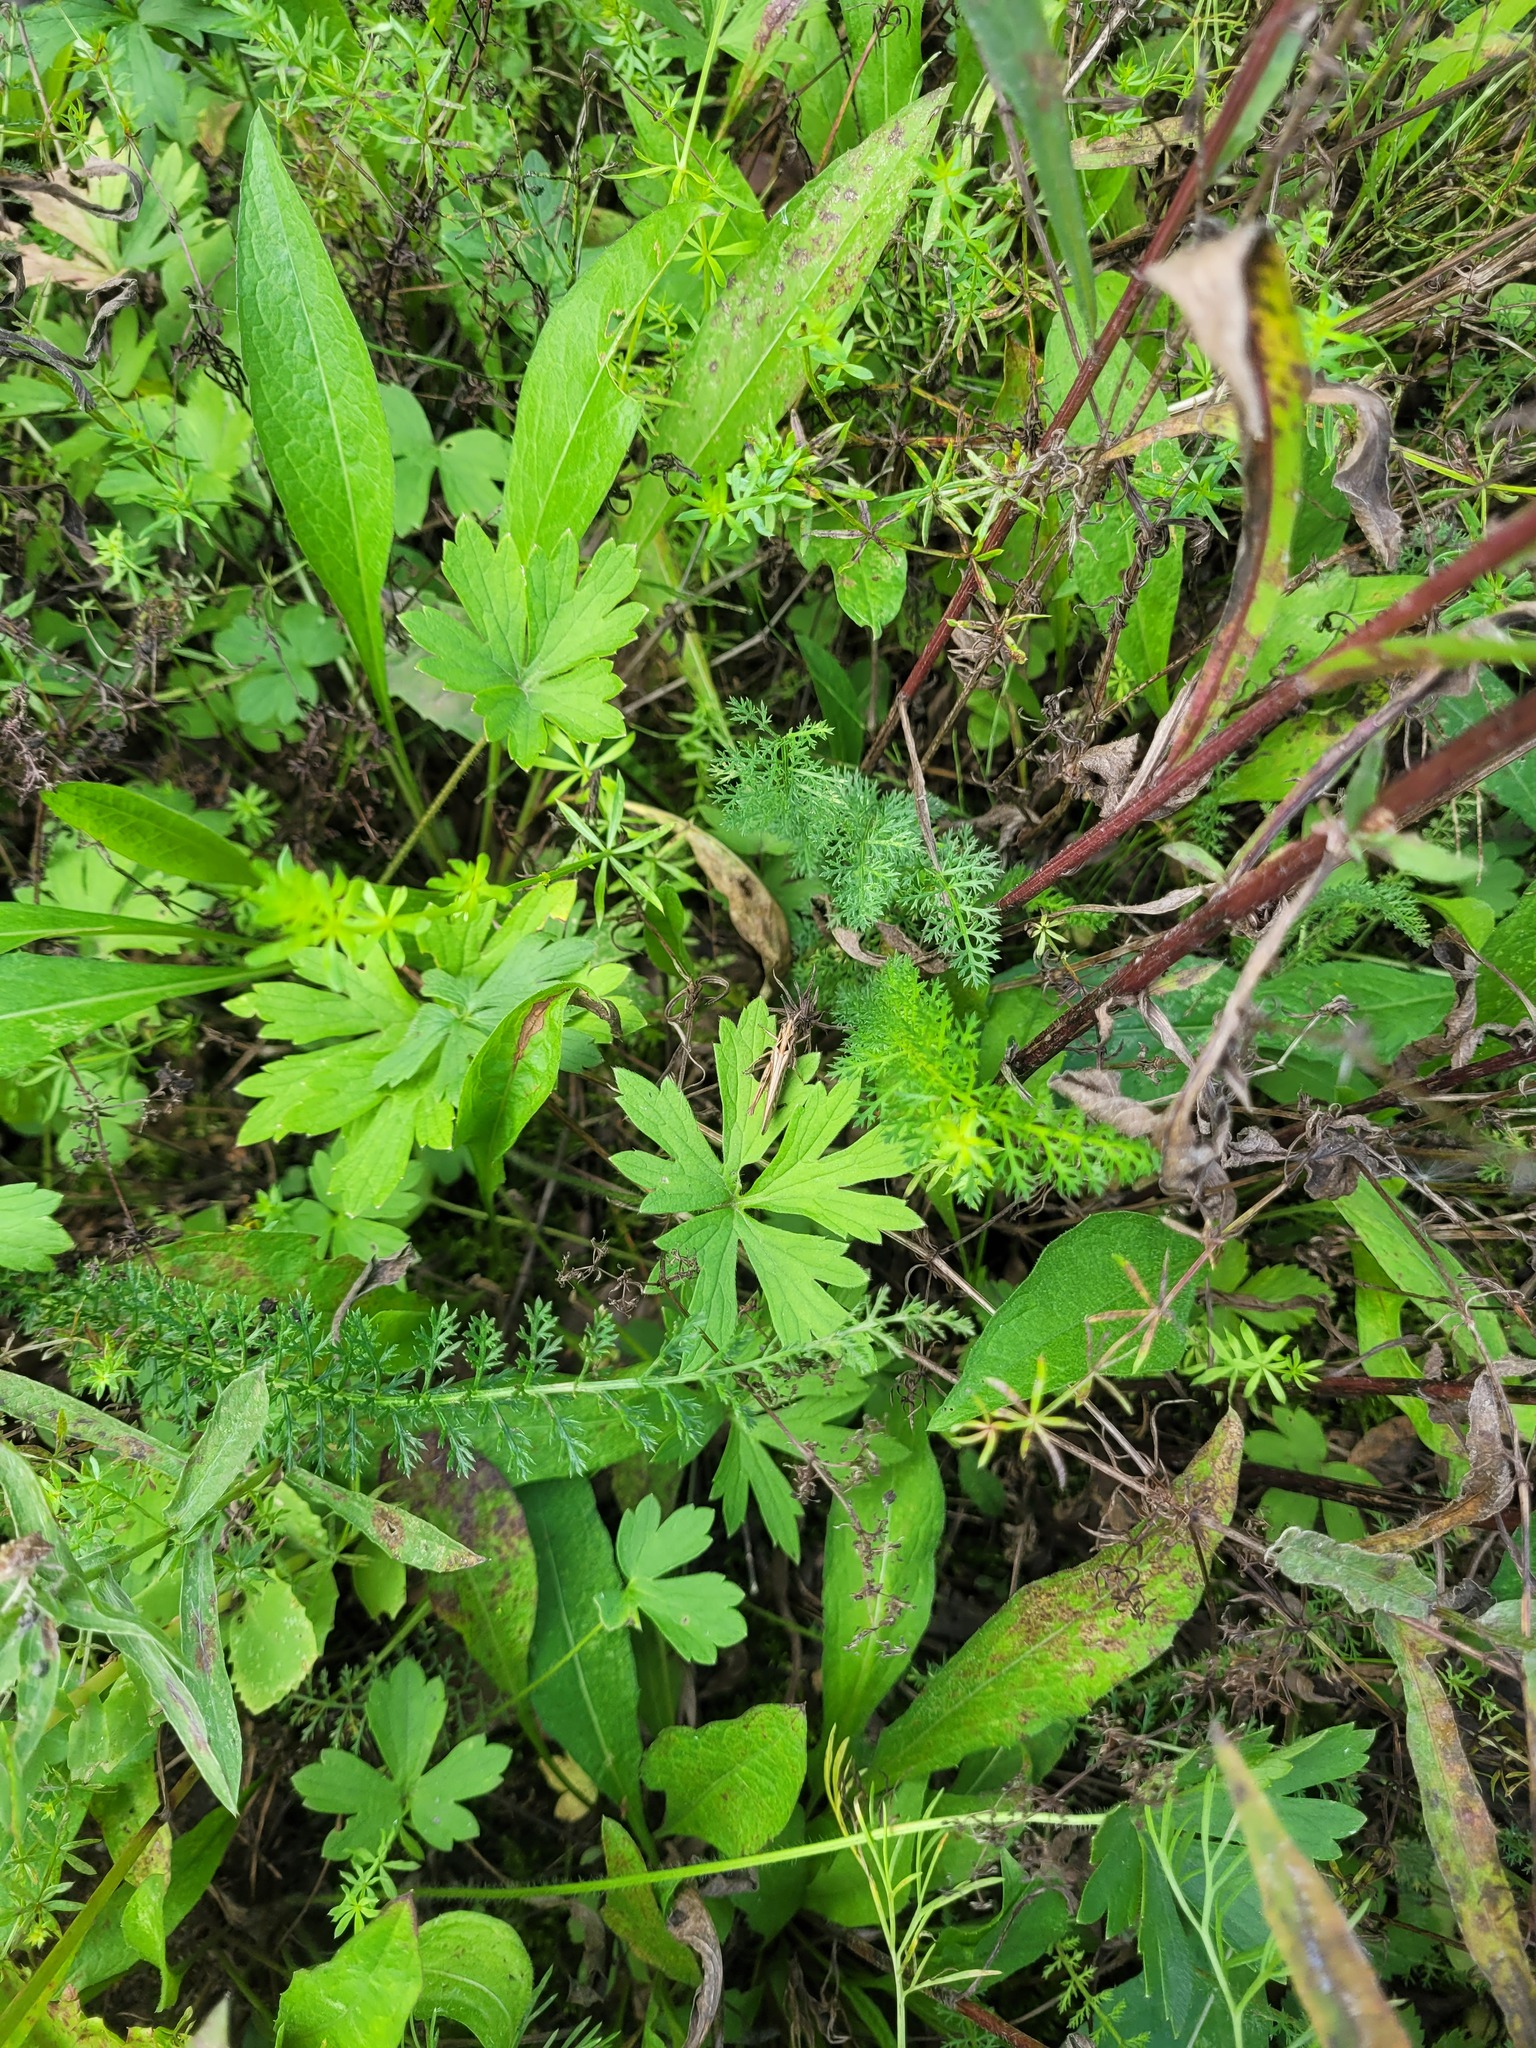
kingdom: Plantae
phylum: Tracheophyta
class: Magnoliopsida
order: Ranunculales
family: Ranunculaceae
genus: Ranunculus
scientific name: Ranunculus polyanthemos
